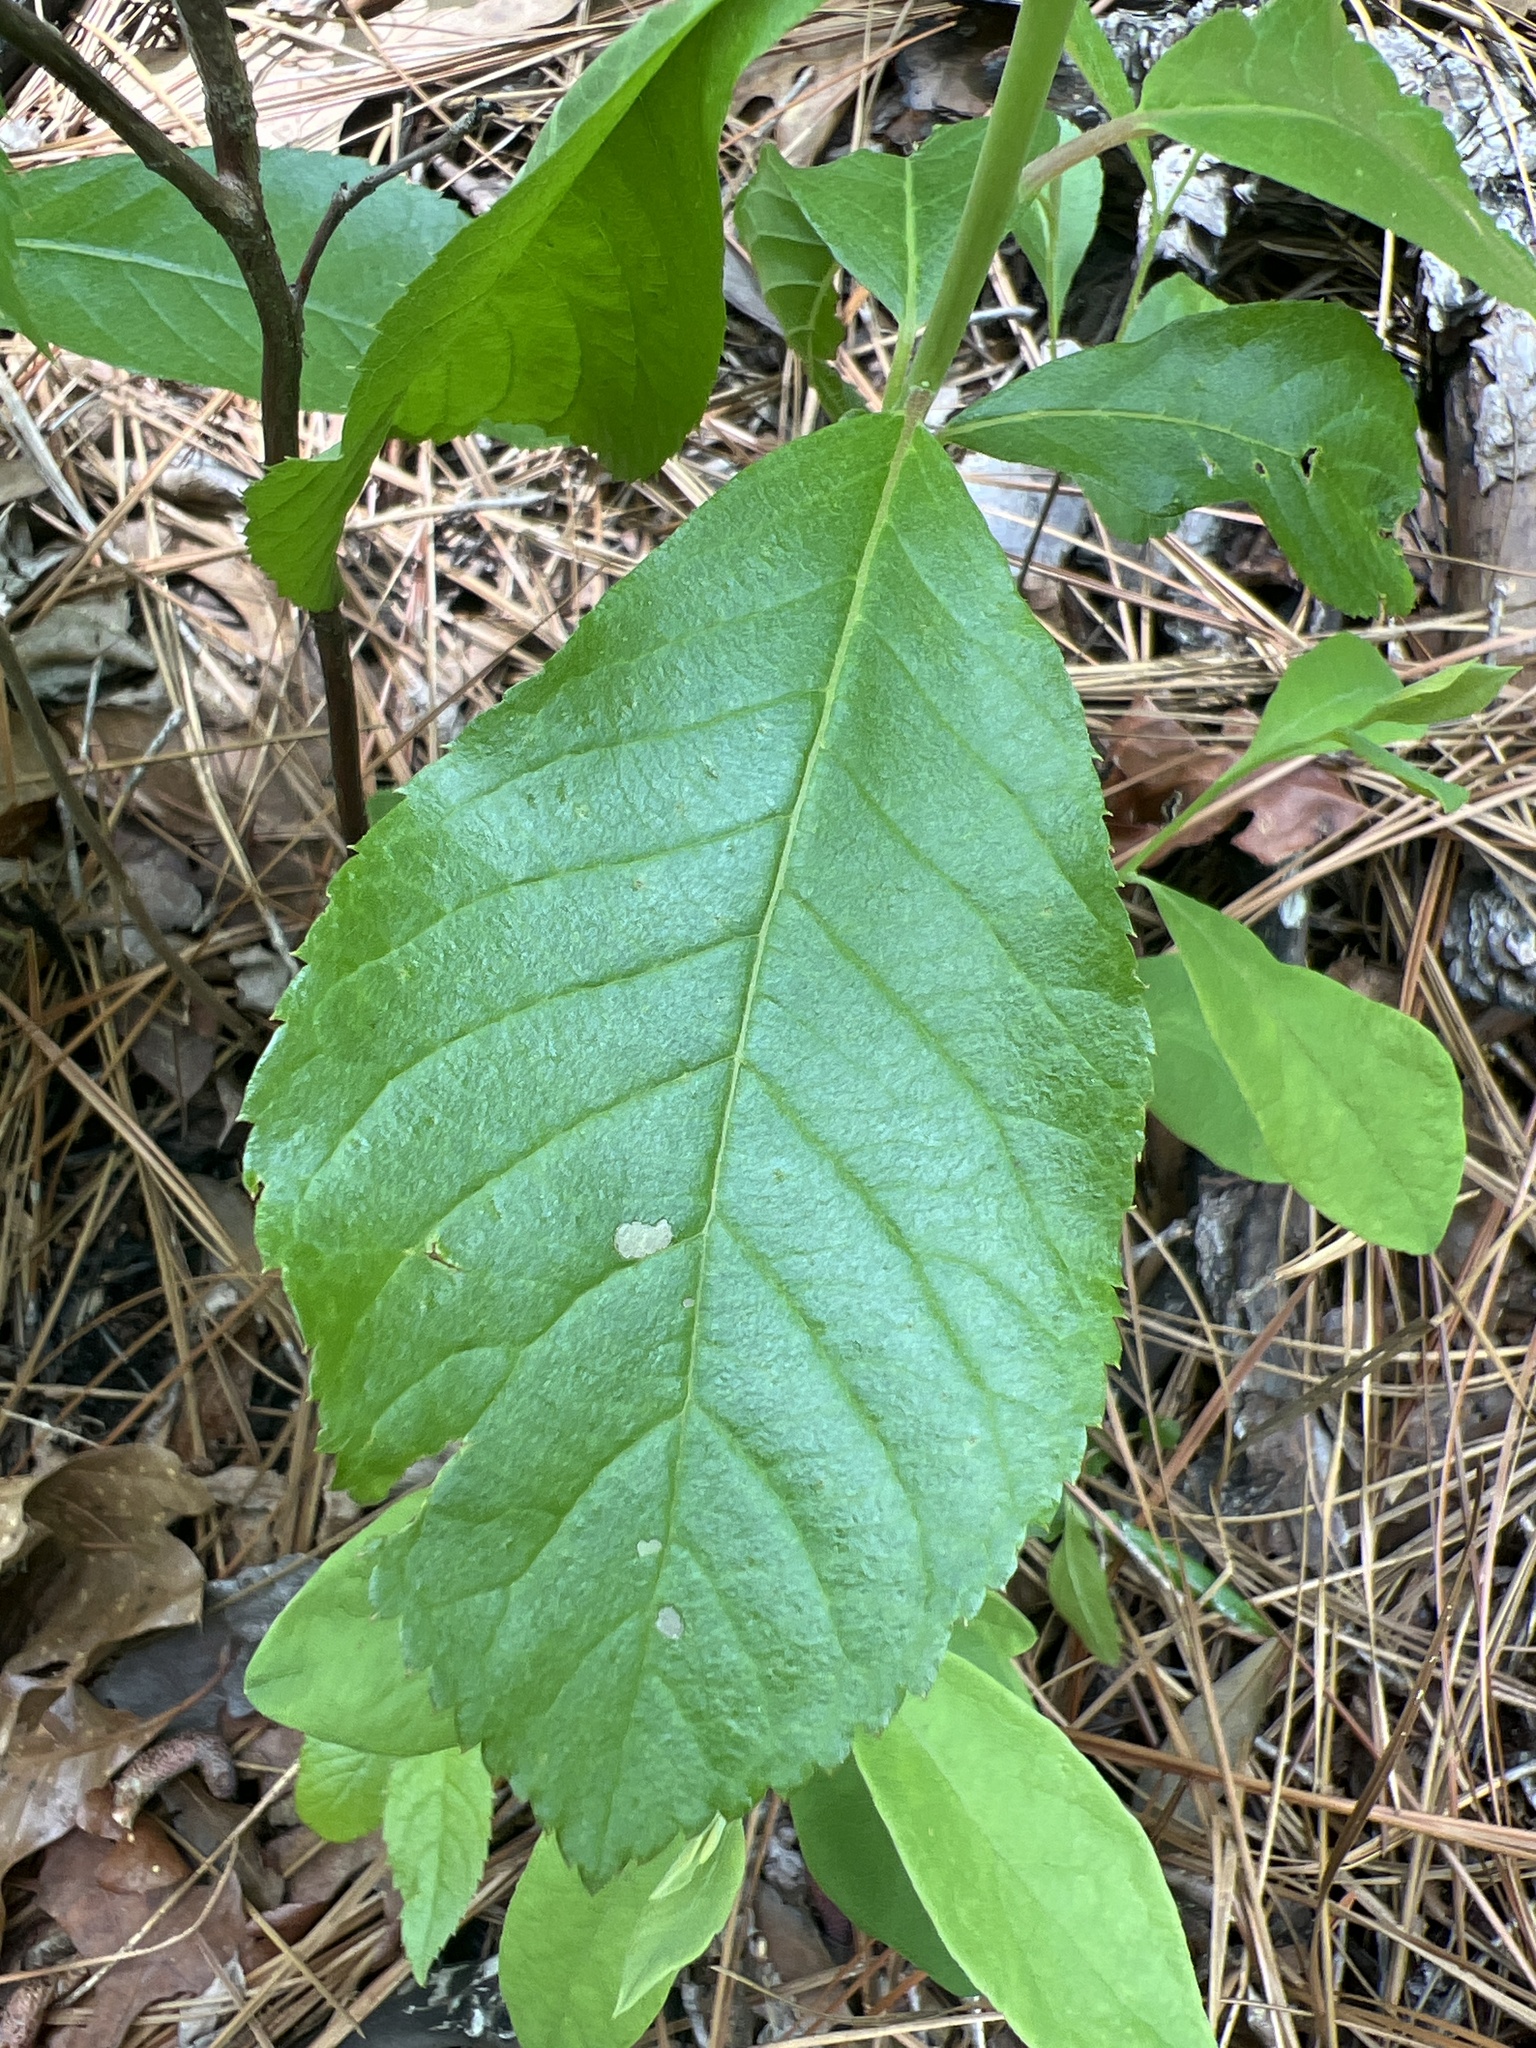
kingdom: Plantae
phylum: Tracheophyta
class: Magnoliopsida
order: Ericales
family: Clethraceae
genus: Clethra
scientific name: Clethra alnifolia
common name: Sweet pepperbush
